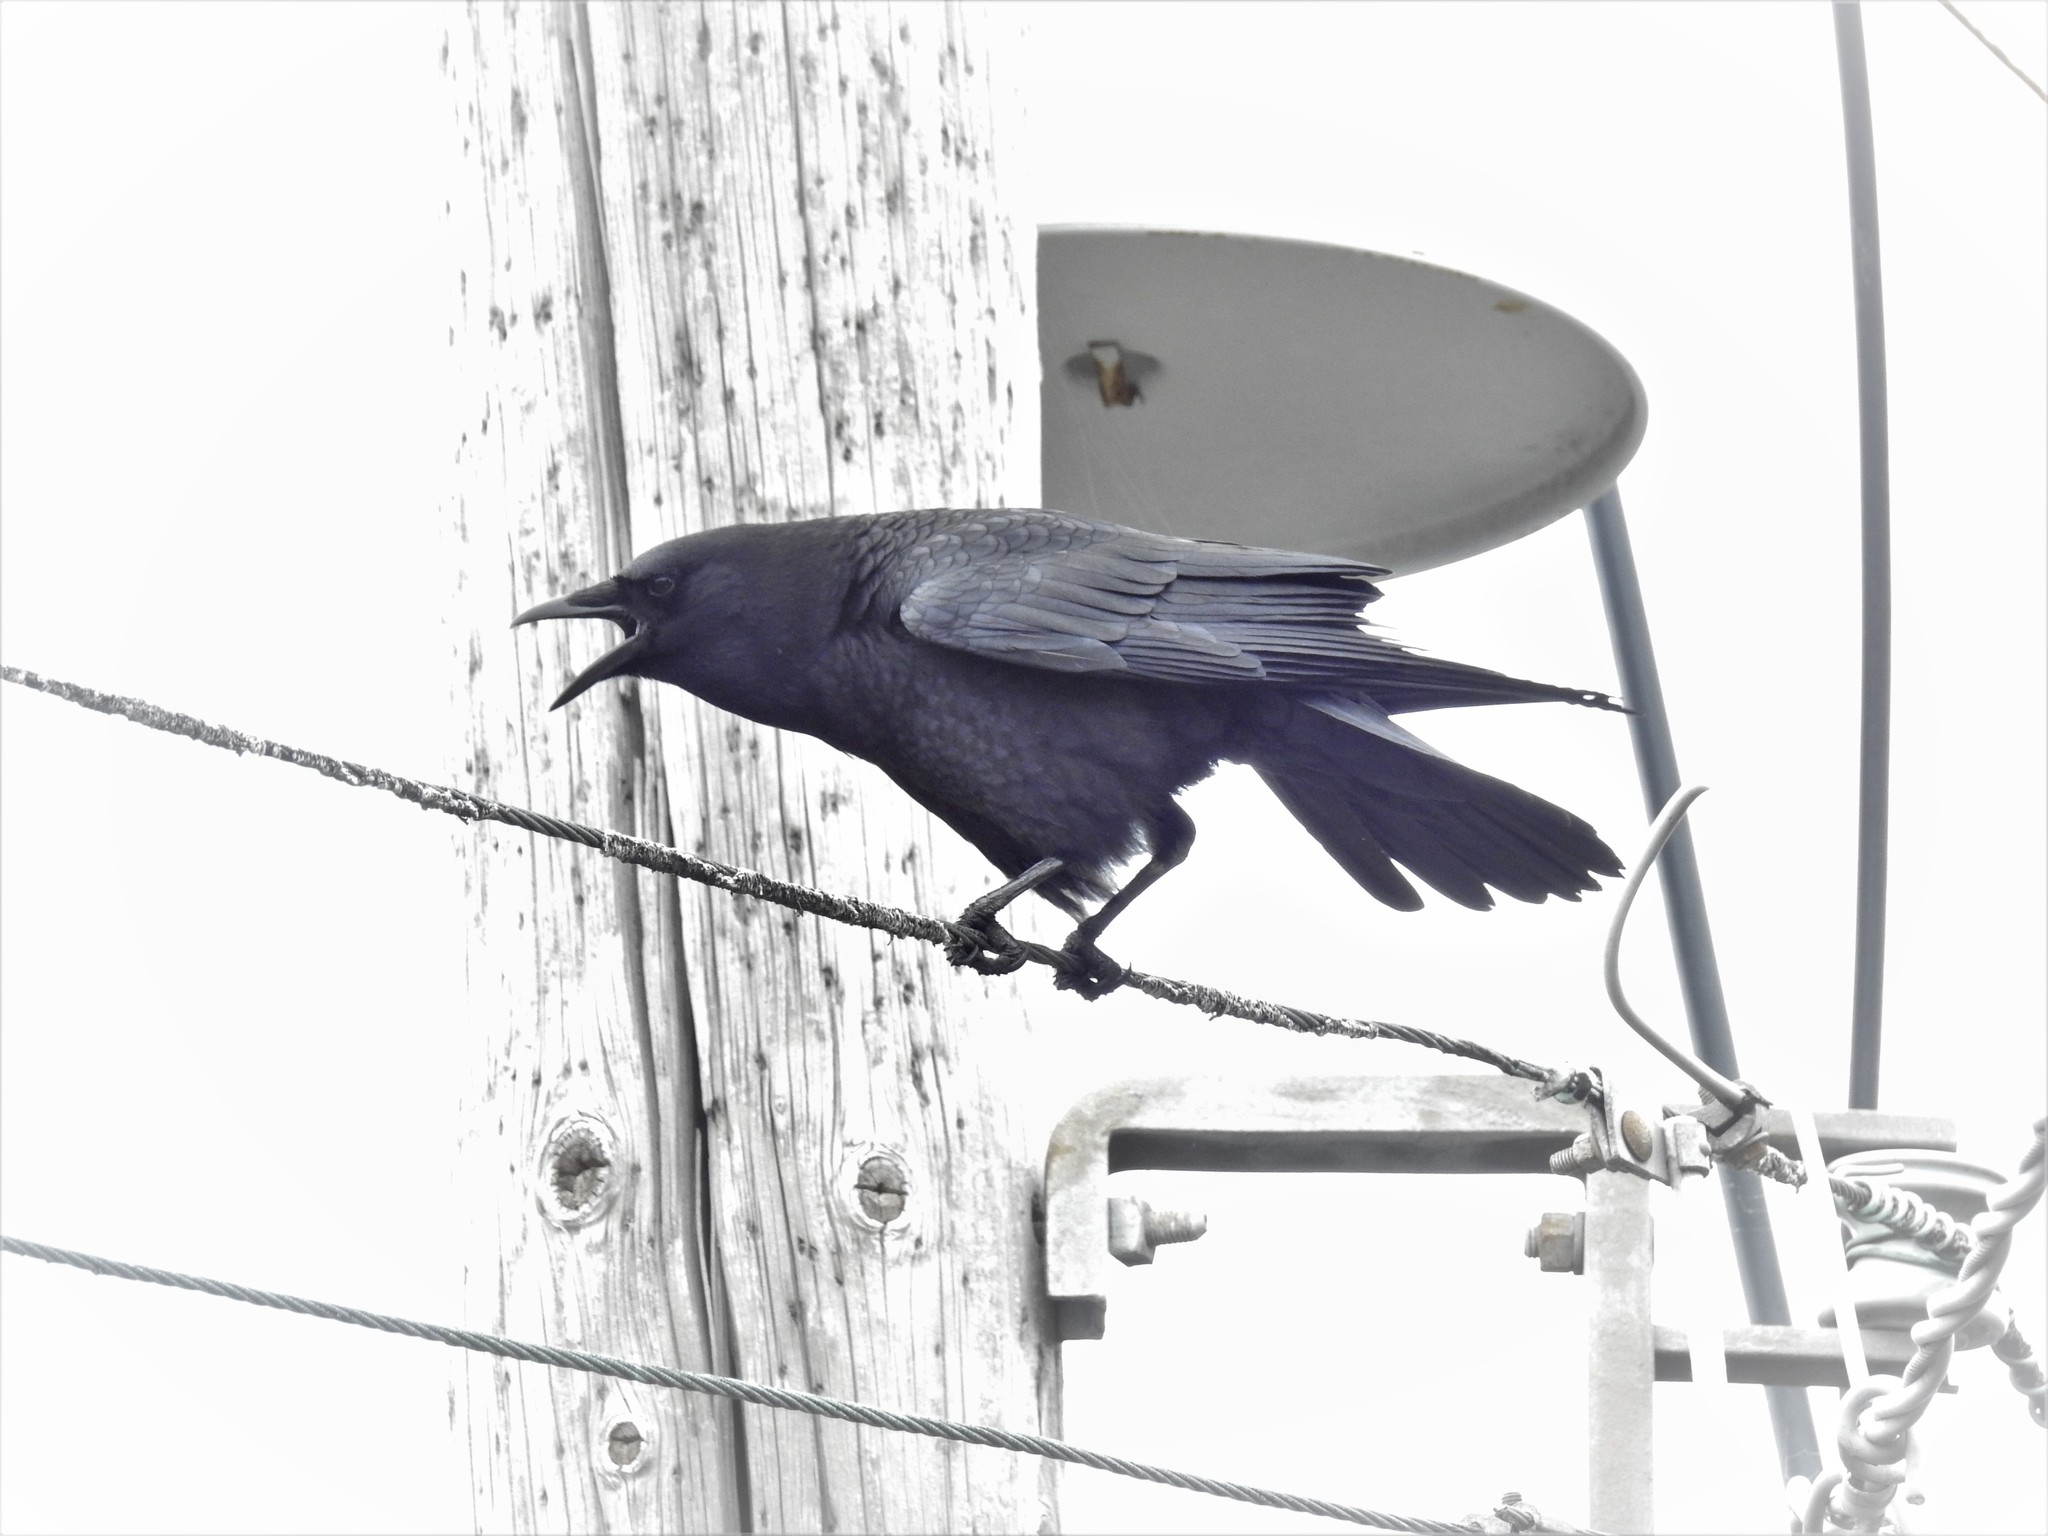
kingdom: Animalia
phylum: Chordata
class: Aves
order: Passeriformes
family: Corvidae
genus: Corvus
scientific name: Corvus brachyrhynchos
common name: American crow
